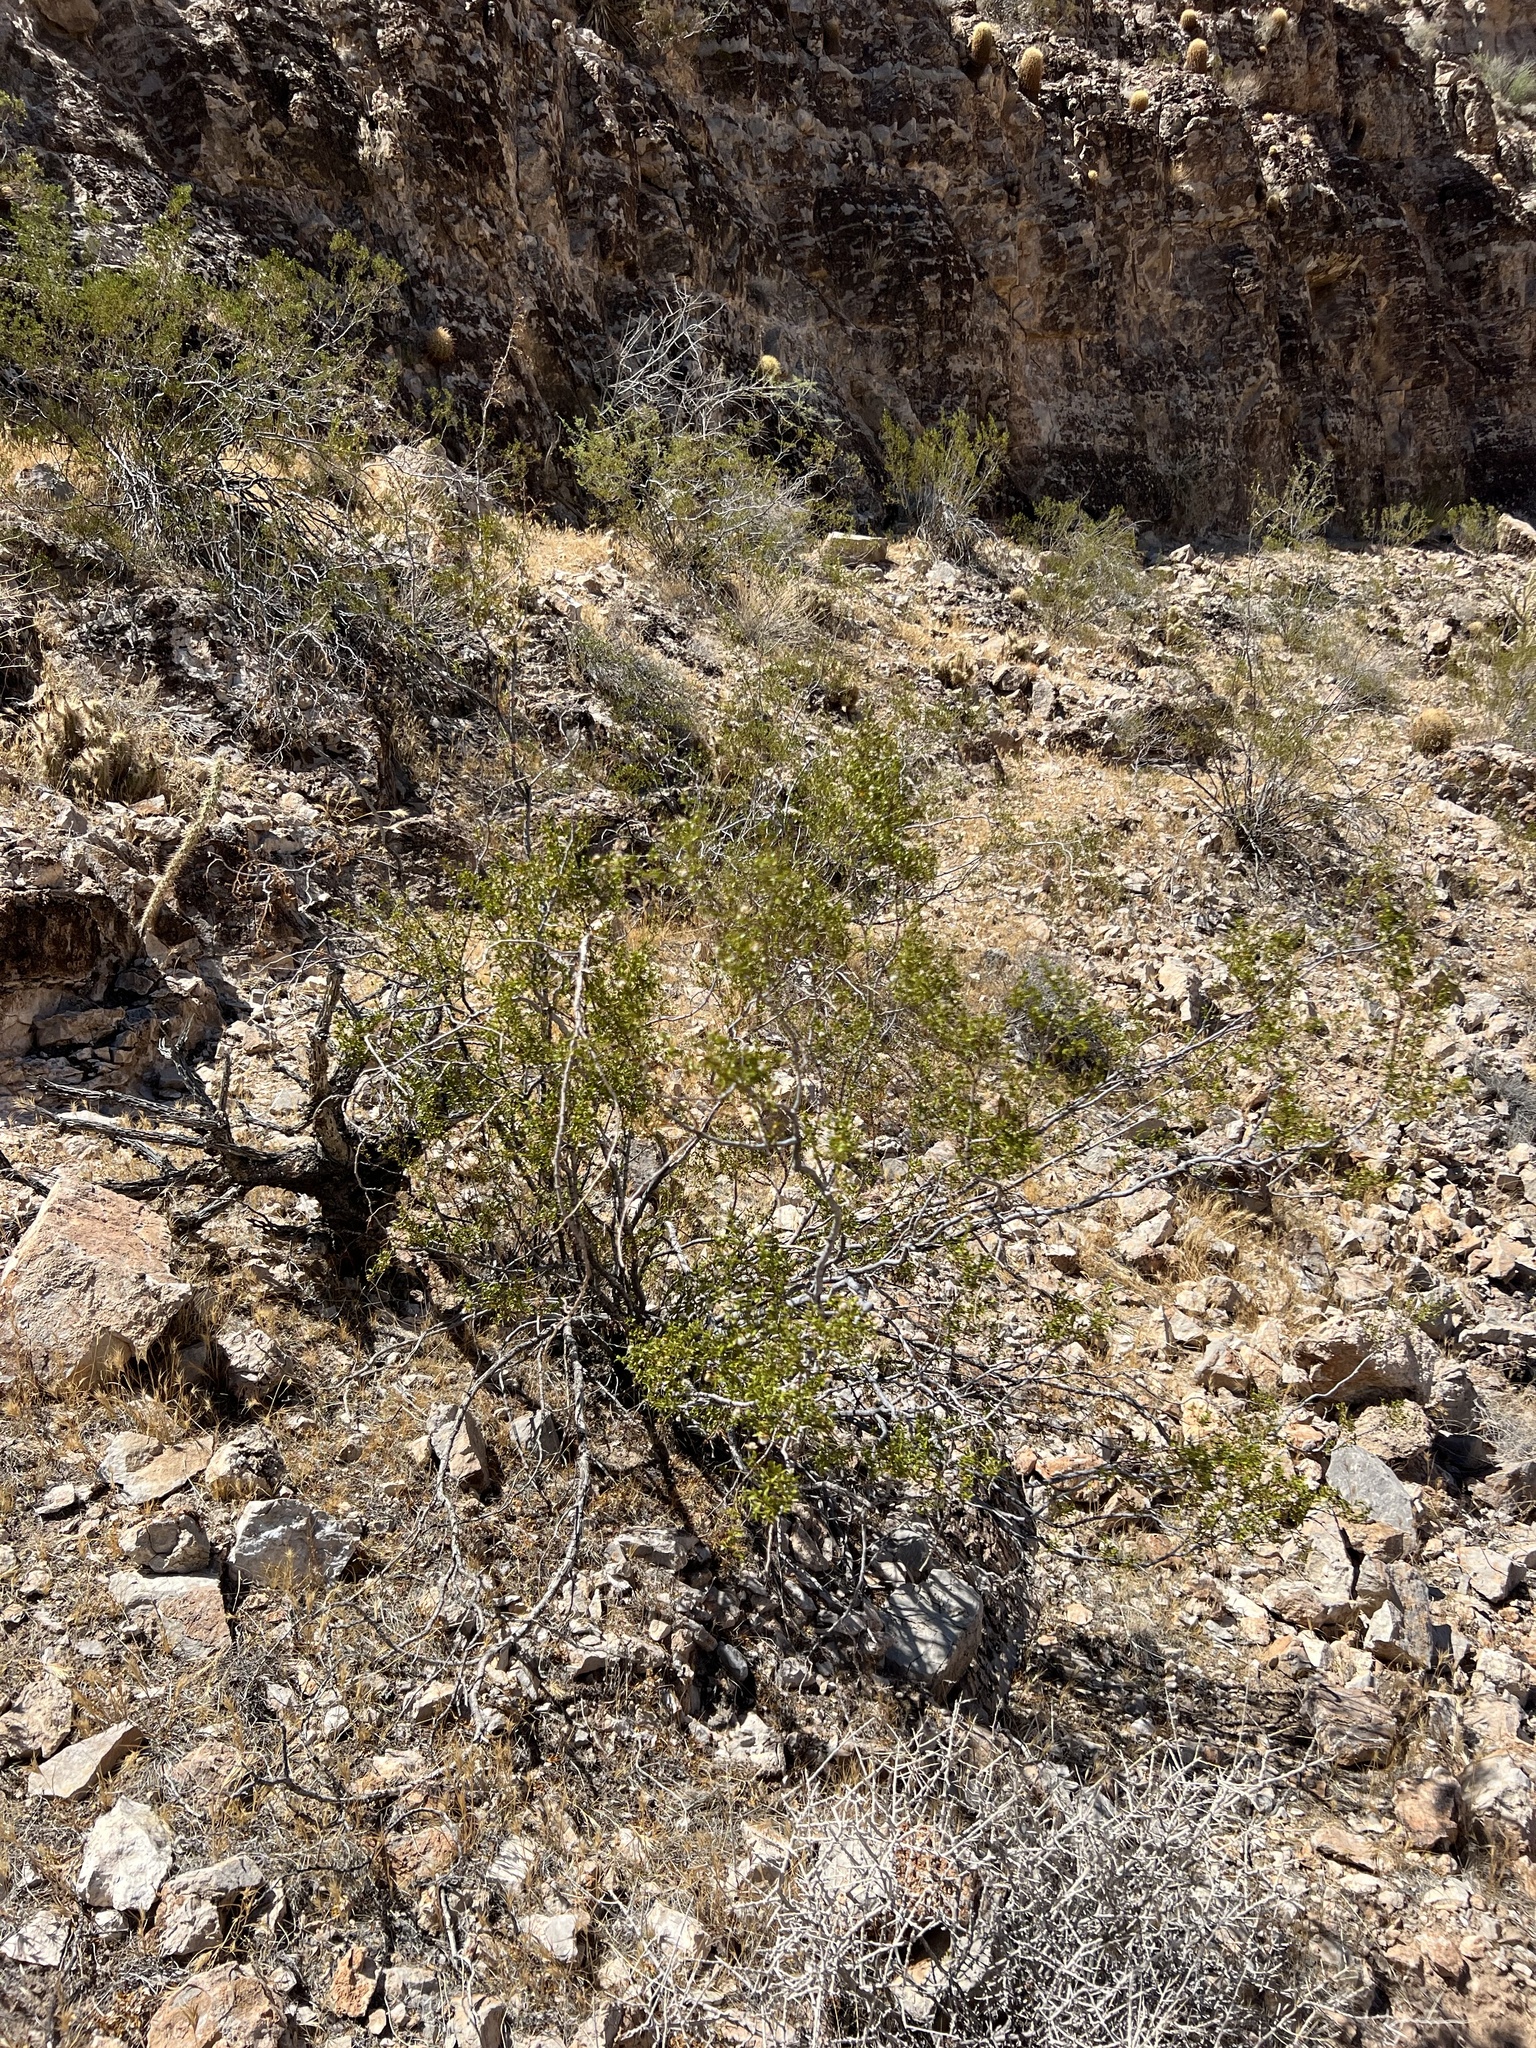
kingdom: Plantae
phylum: Tracheophyta
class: Magnoliopsida
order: Zygophyllales
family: Zygophyllaceae
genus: Larrea
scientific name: Larrea tridentata
